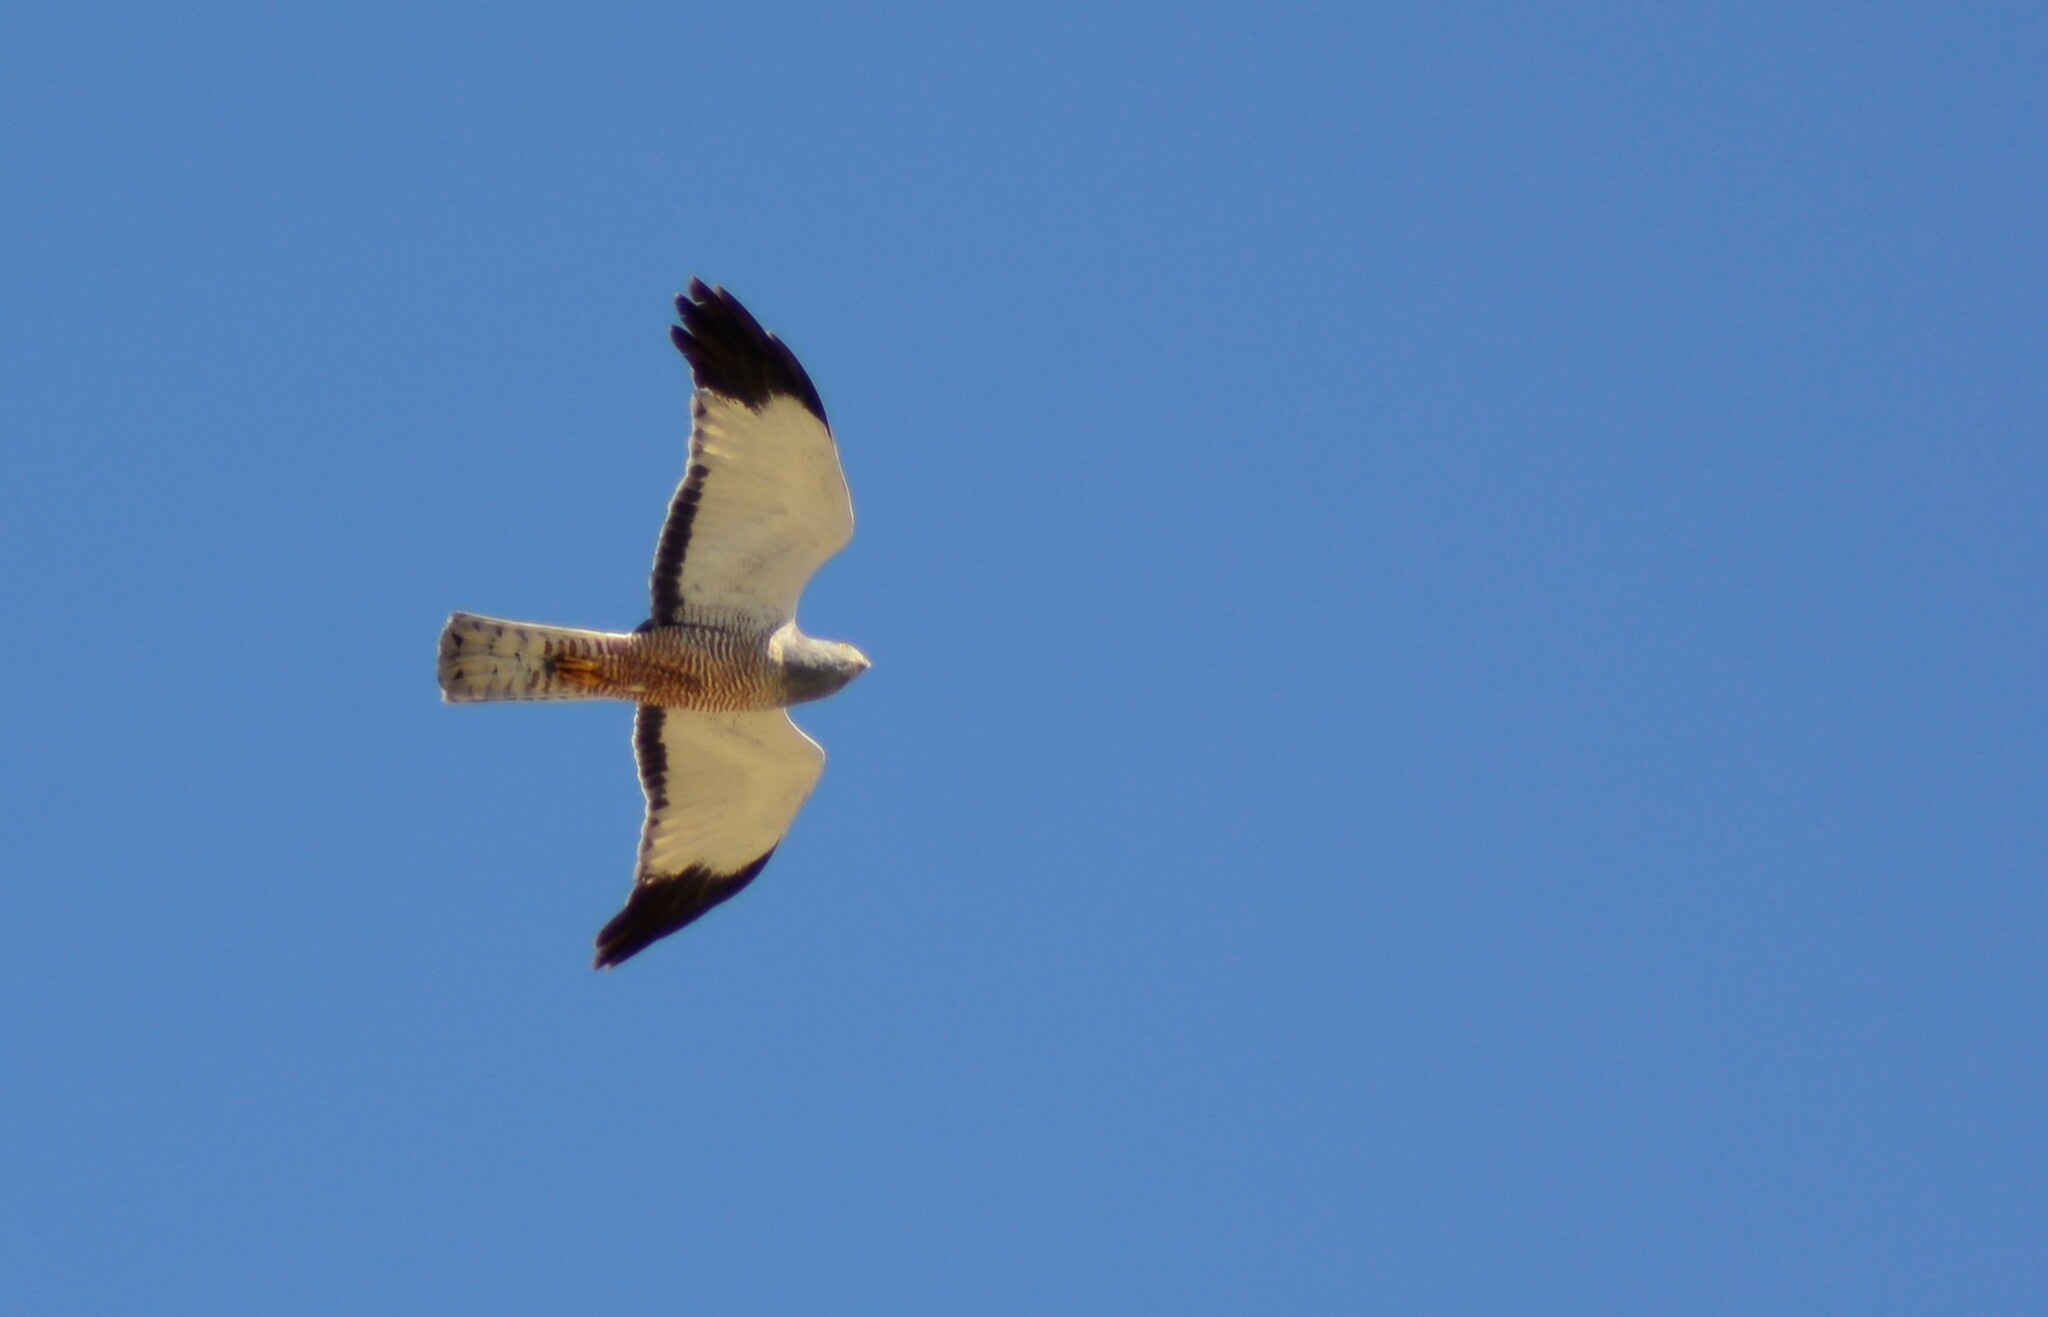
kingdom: Animalia
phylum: Chordata
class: Aves
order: Accipitriformes
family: Accipitridae
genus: Circus
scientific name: Circus cinereus
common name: Cinereous harrier
